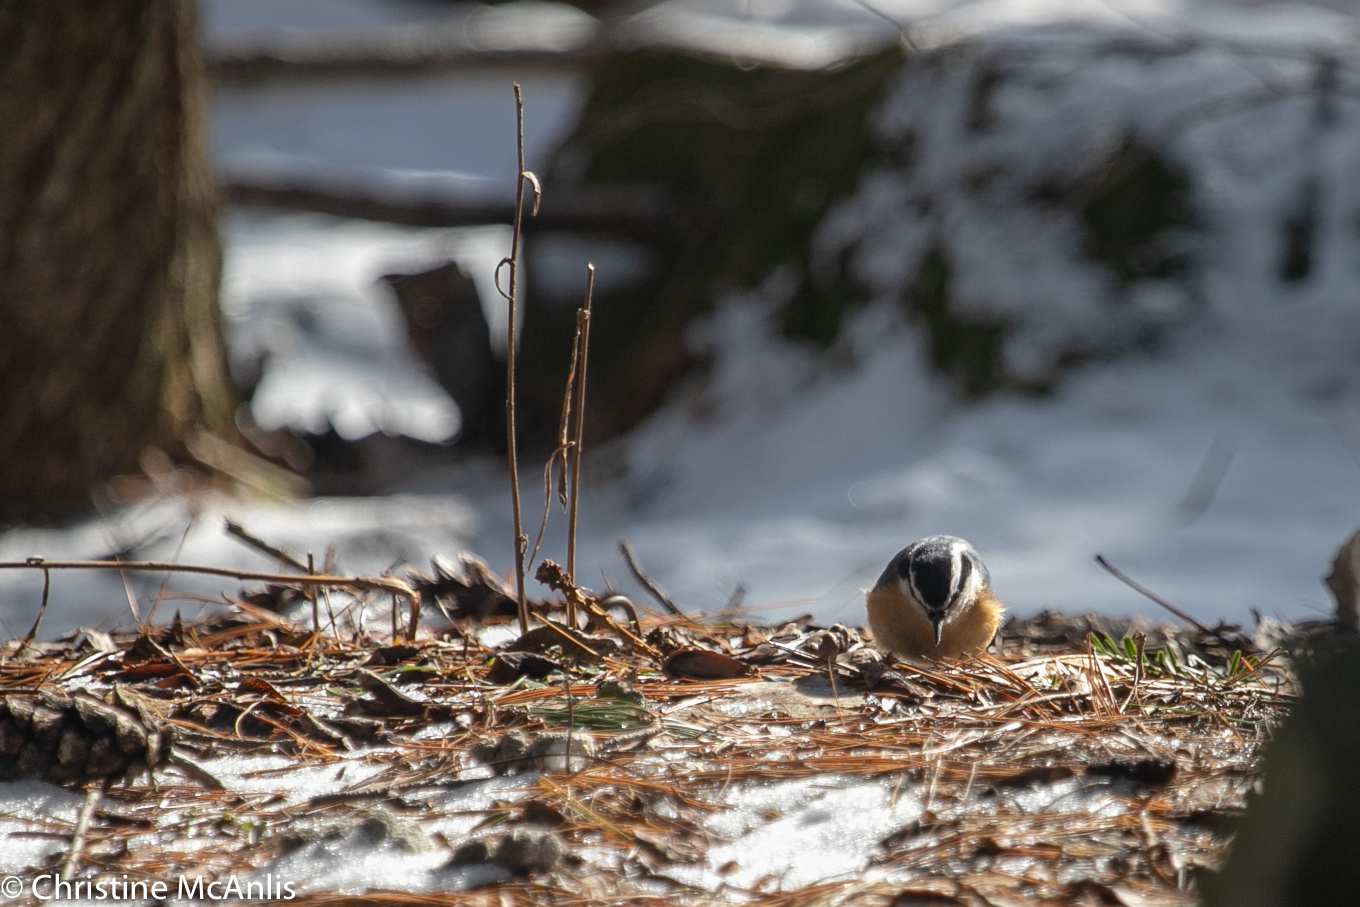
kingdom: Animalia
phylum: Chordata
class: Aves
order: Passeriformes
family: Sittidae
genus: Sitta
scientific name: Sitta canadensis
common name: Red-breasted nuthatch
